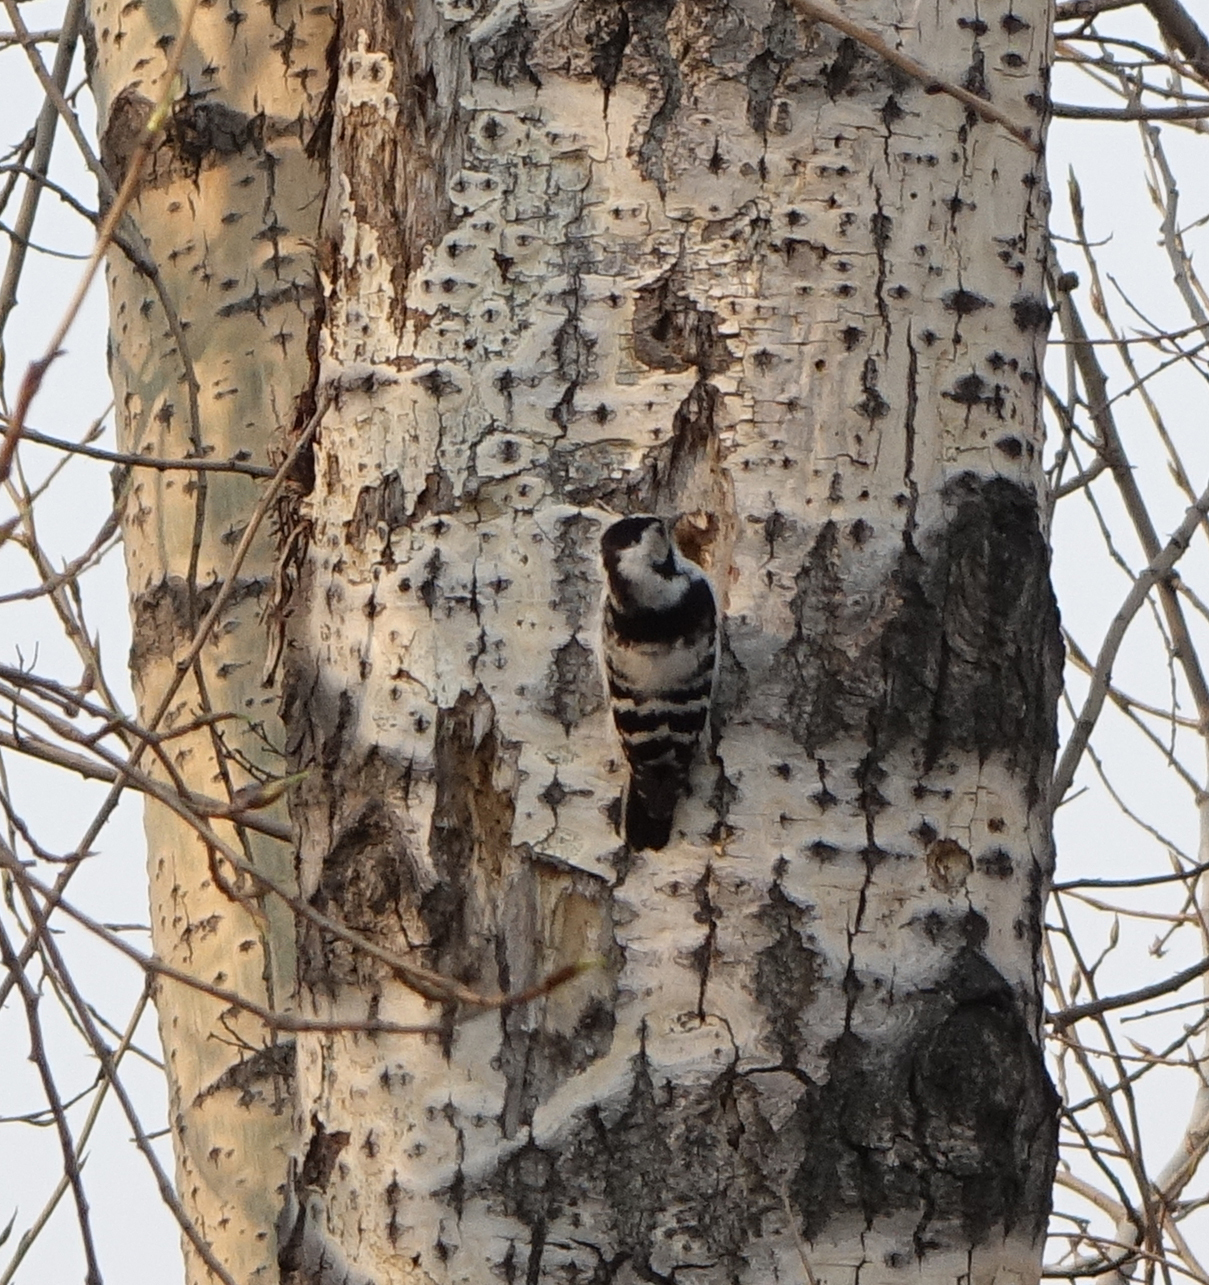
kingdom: Animalia
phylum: Chordata
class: Aves
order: Piciformes
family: Picidae
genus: Dryobates
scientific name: Dryobates minor
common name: Lesser spotted woodpecker
